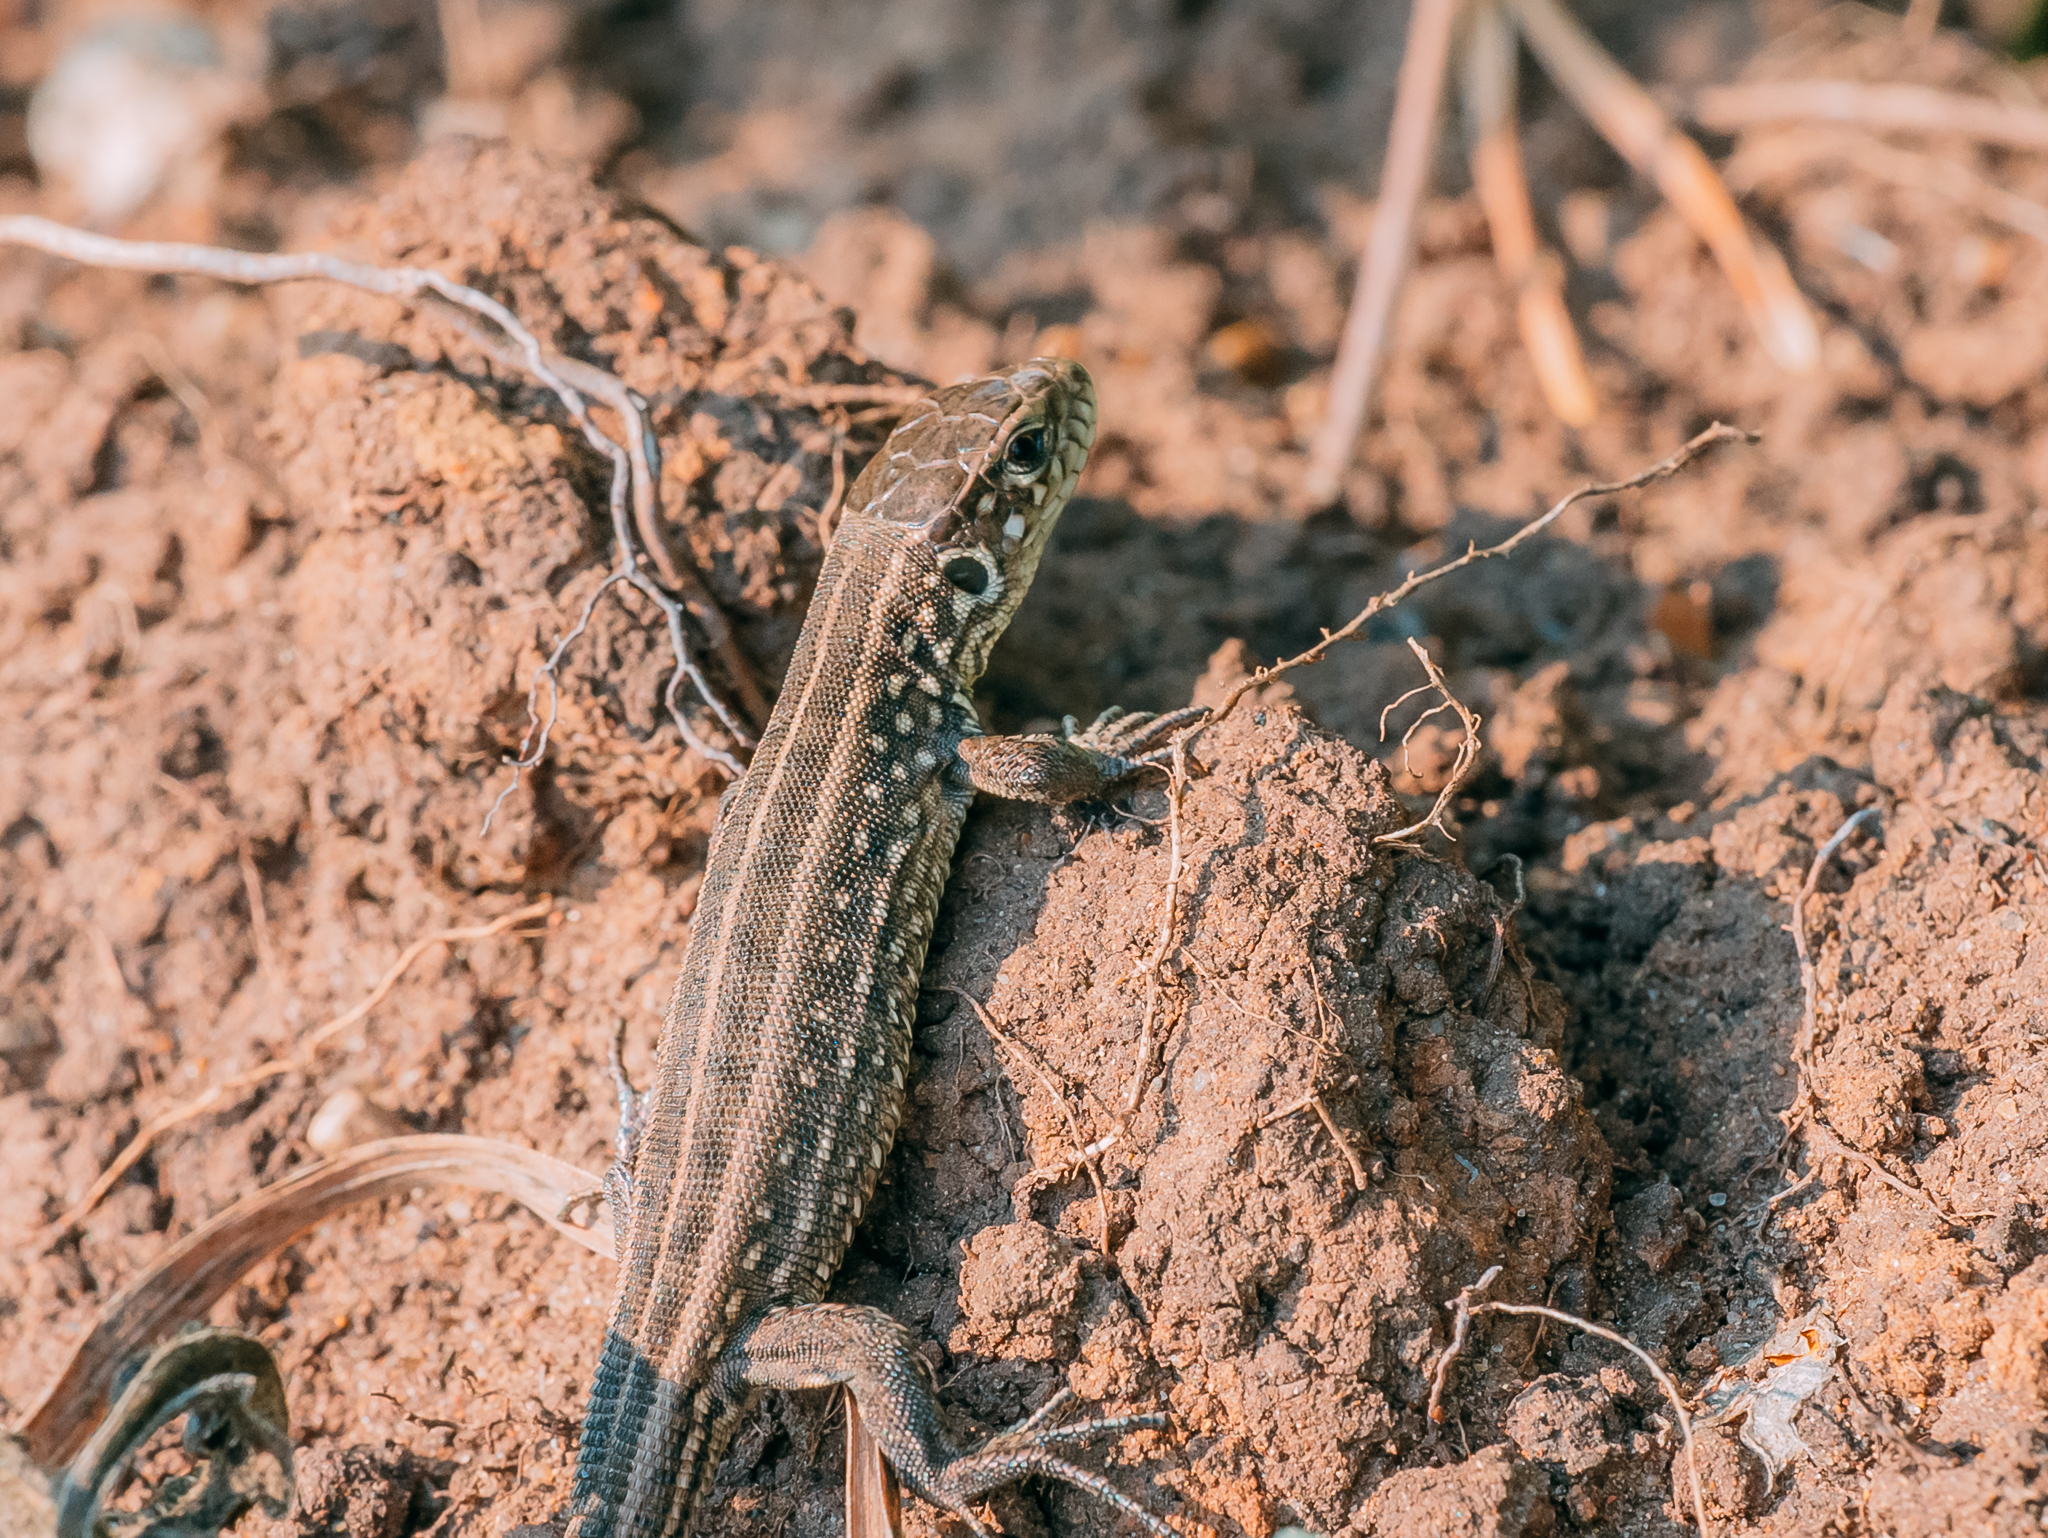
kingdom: Animalia
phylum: Chordata
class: Squamata
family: Lacertidae
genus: Lacerta
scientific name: Lacerta agilis
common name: Sand lizard
